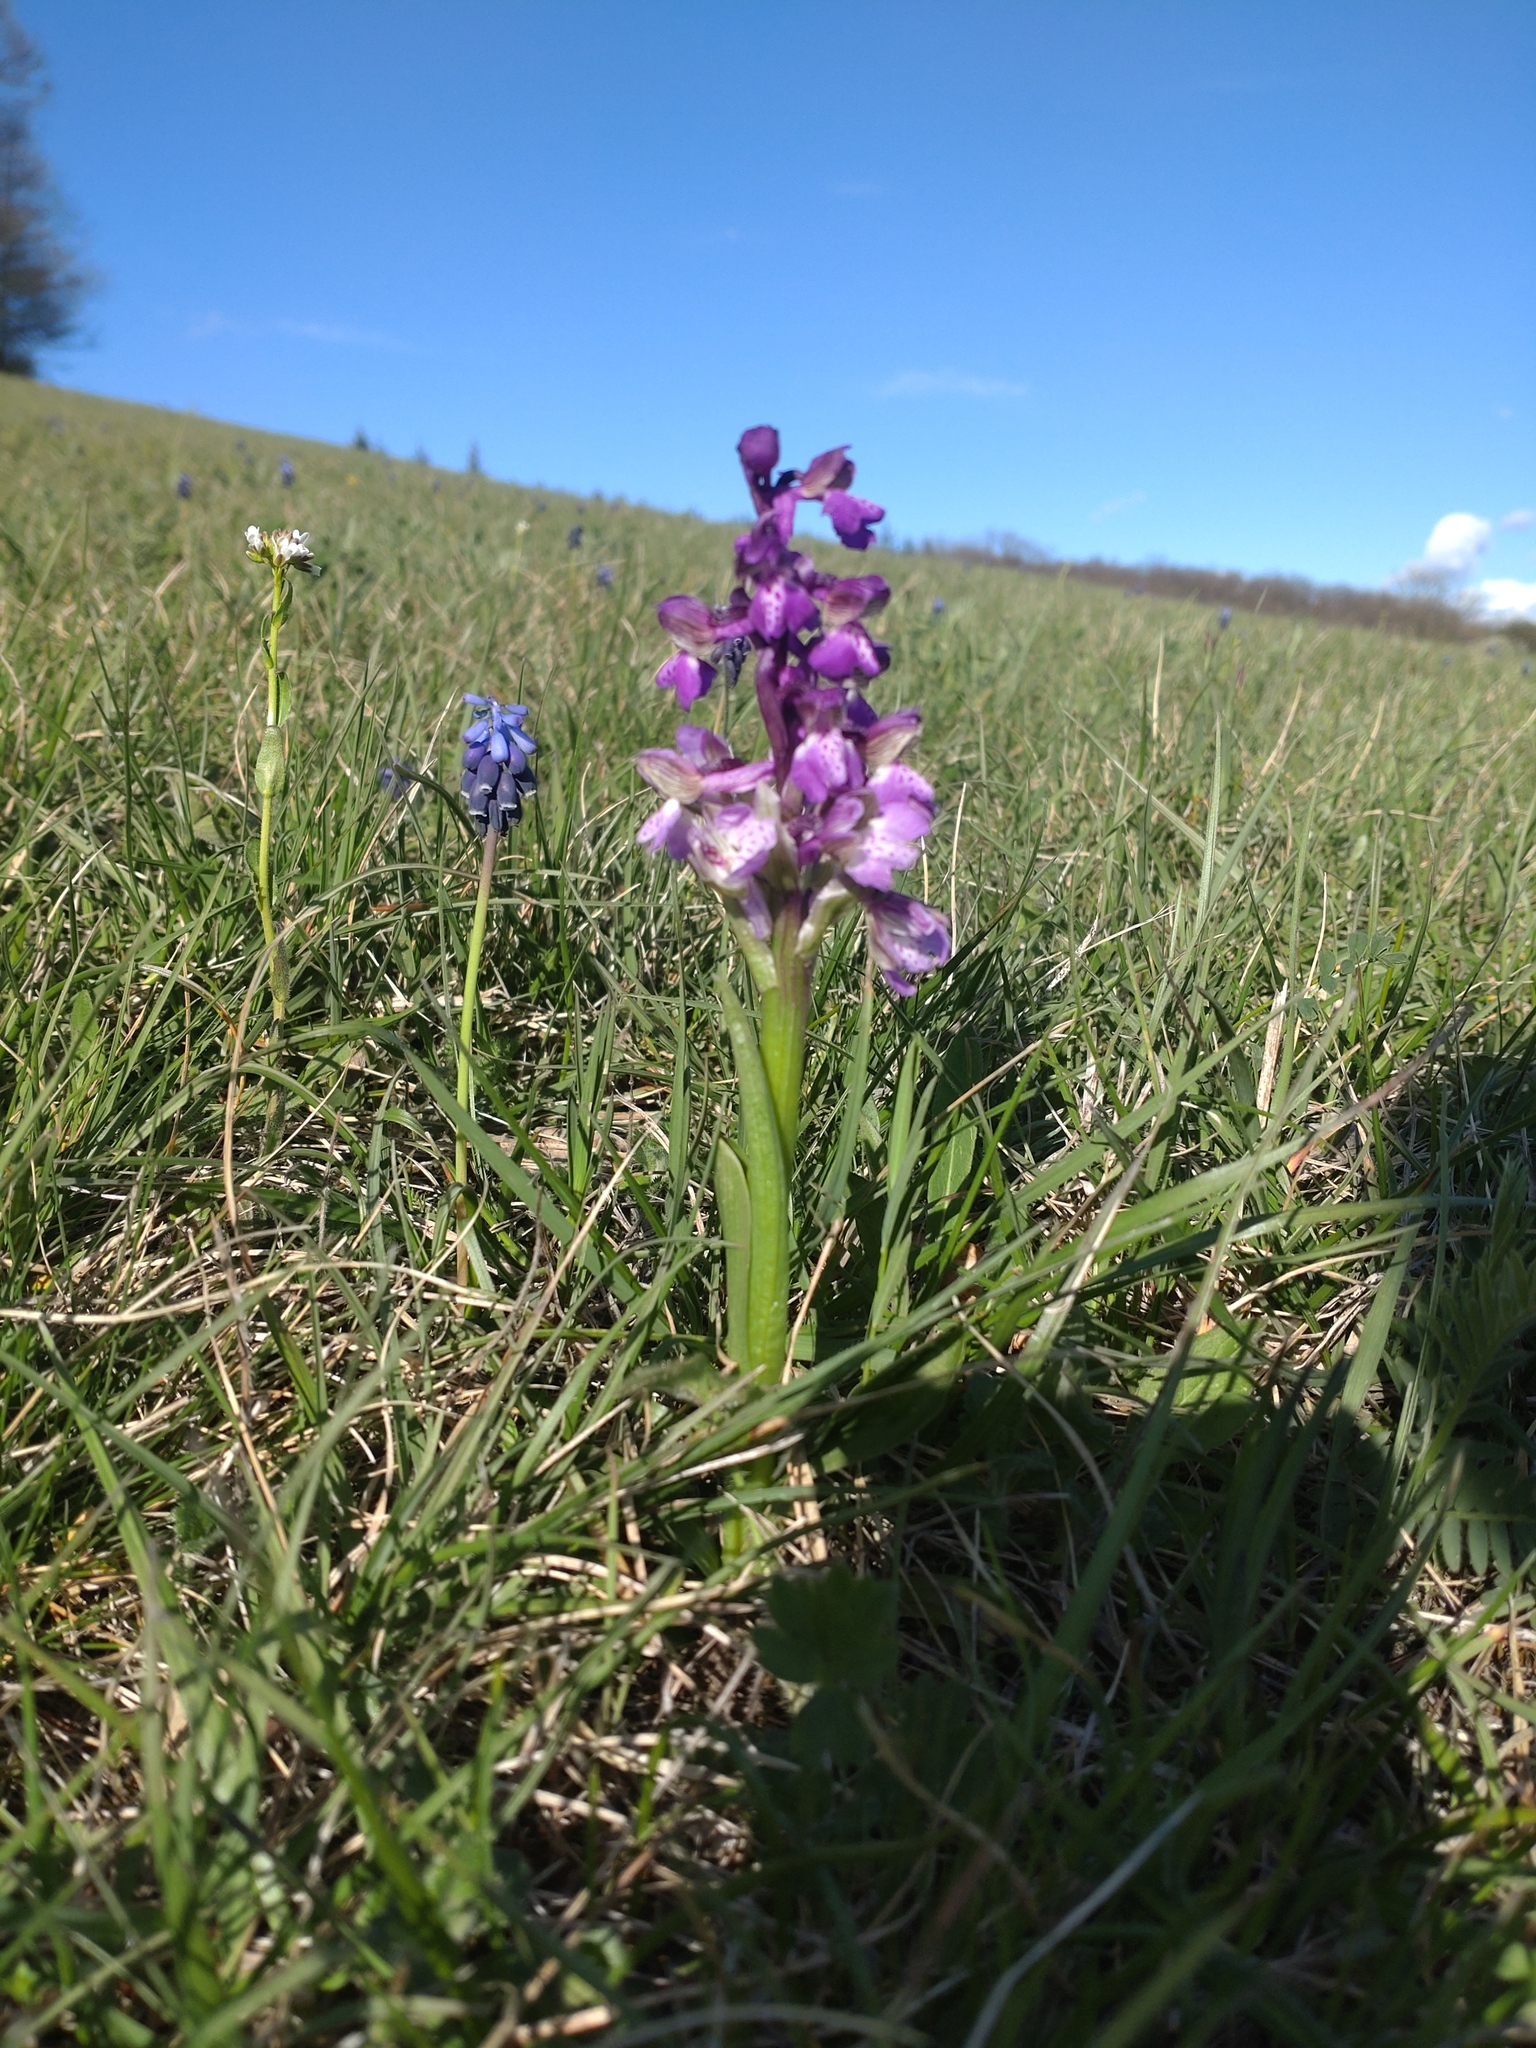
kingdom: Plantae
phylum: Tracheophyta
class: Liliopsida
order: Asparagales
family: Orchidaceae
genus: Anacamptis
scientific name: Anacamptis morio
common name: Green-winged orchid
